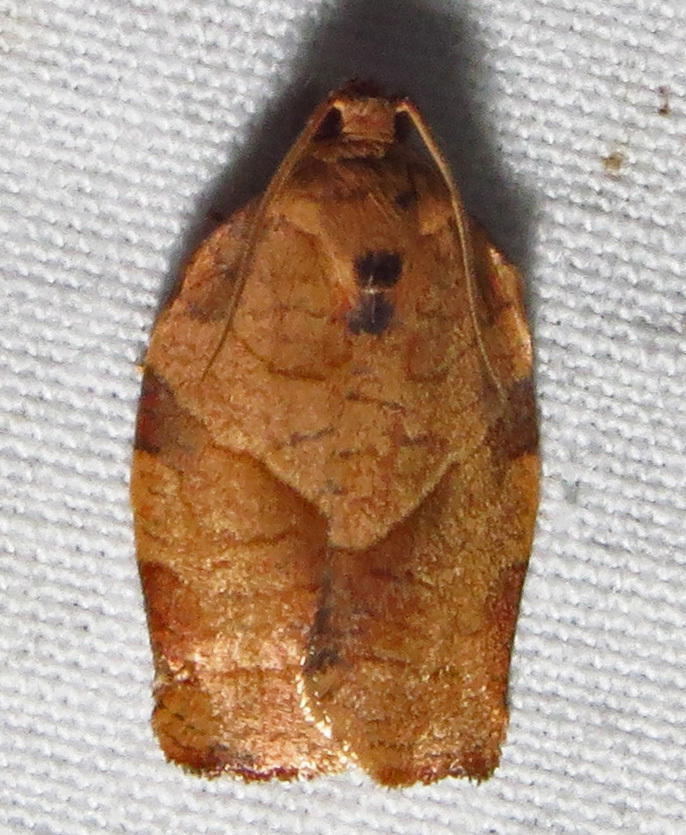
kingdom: Animalia
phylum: Arthropoda
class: Insecta
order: Lepidoptera
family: Tortricidae
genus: Choristoneura
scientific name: Choristoneura rosaceana
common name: Oblique-banded leafroller moth
